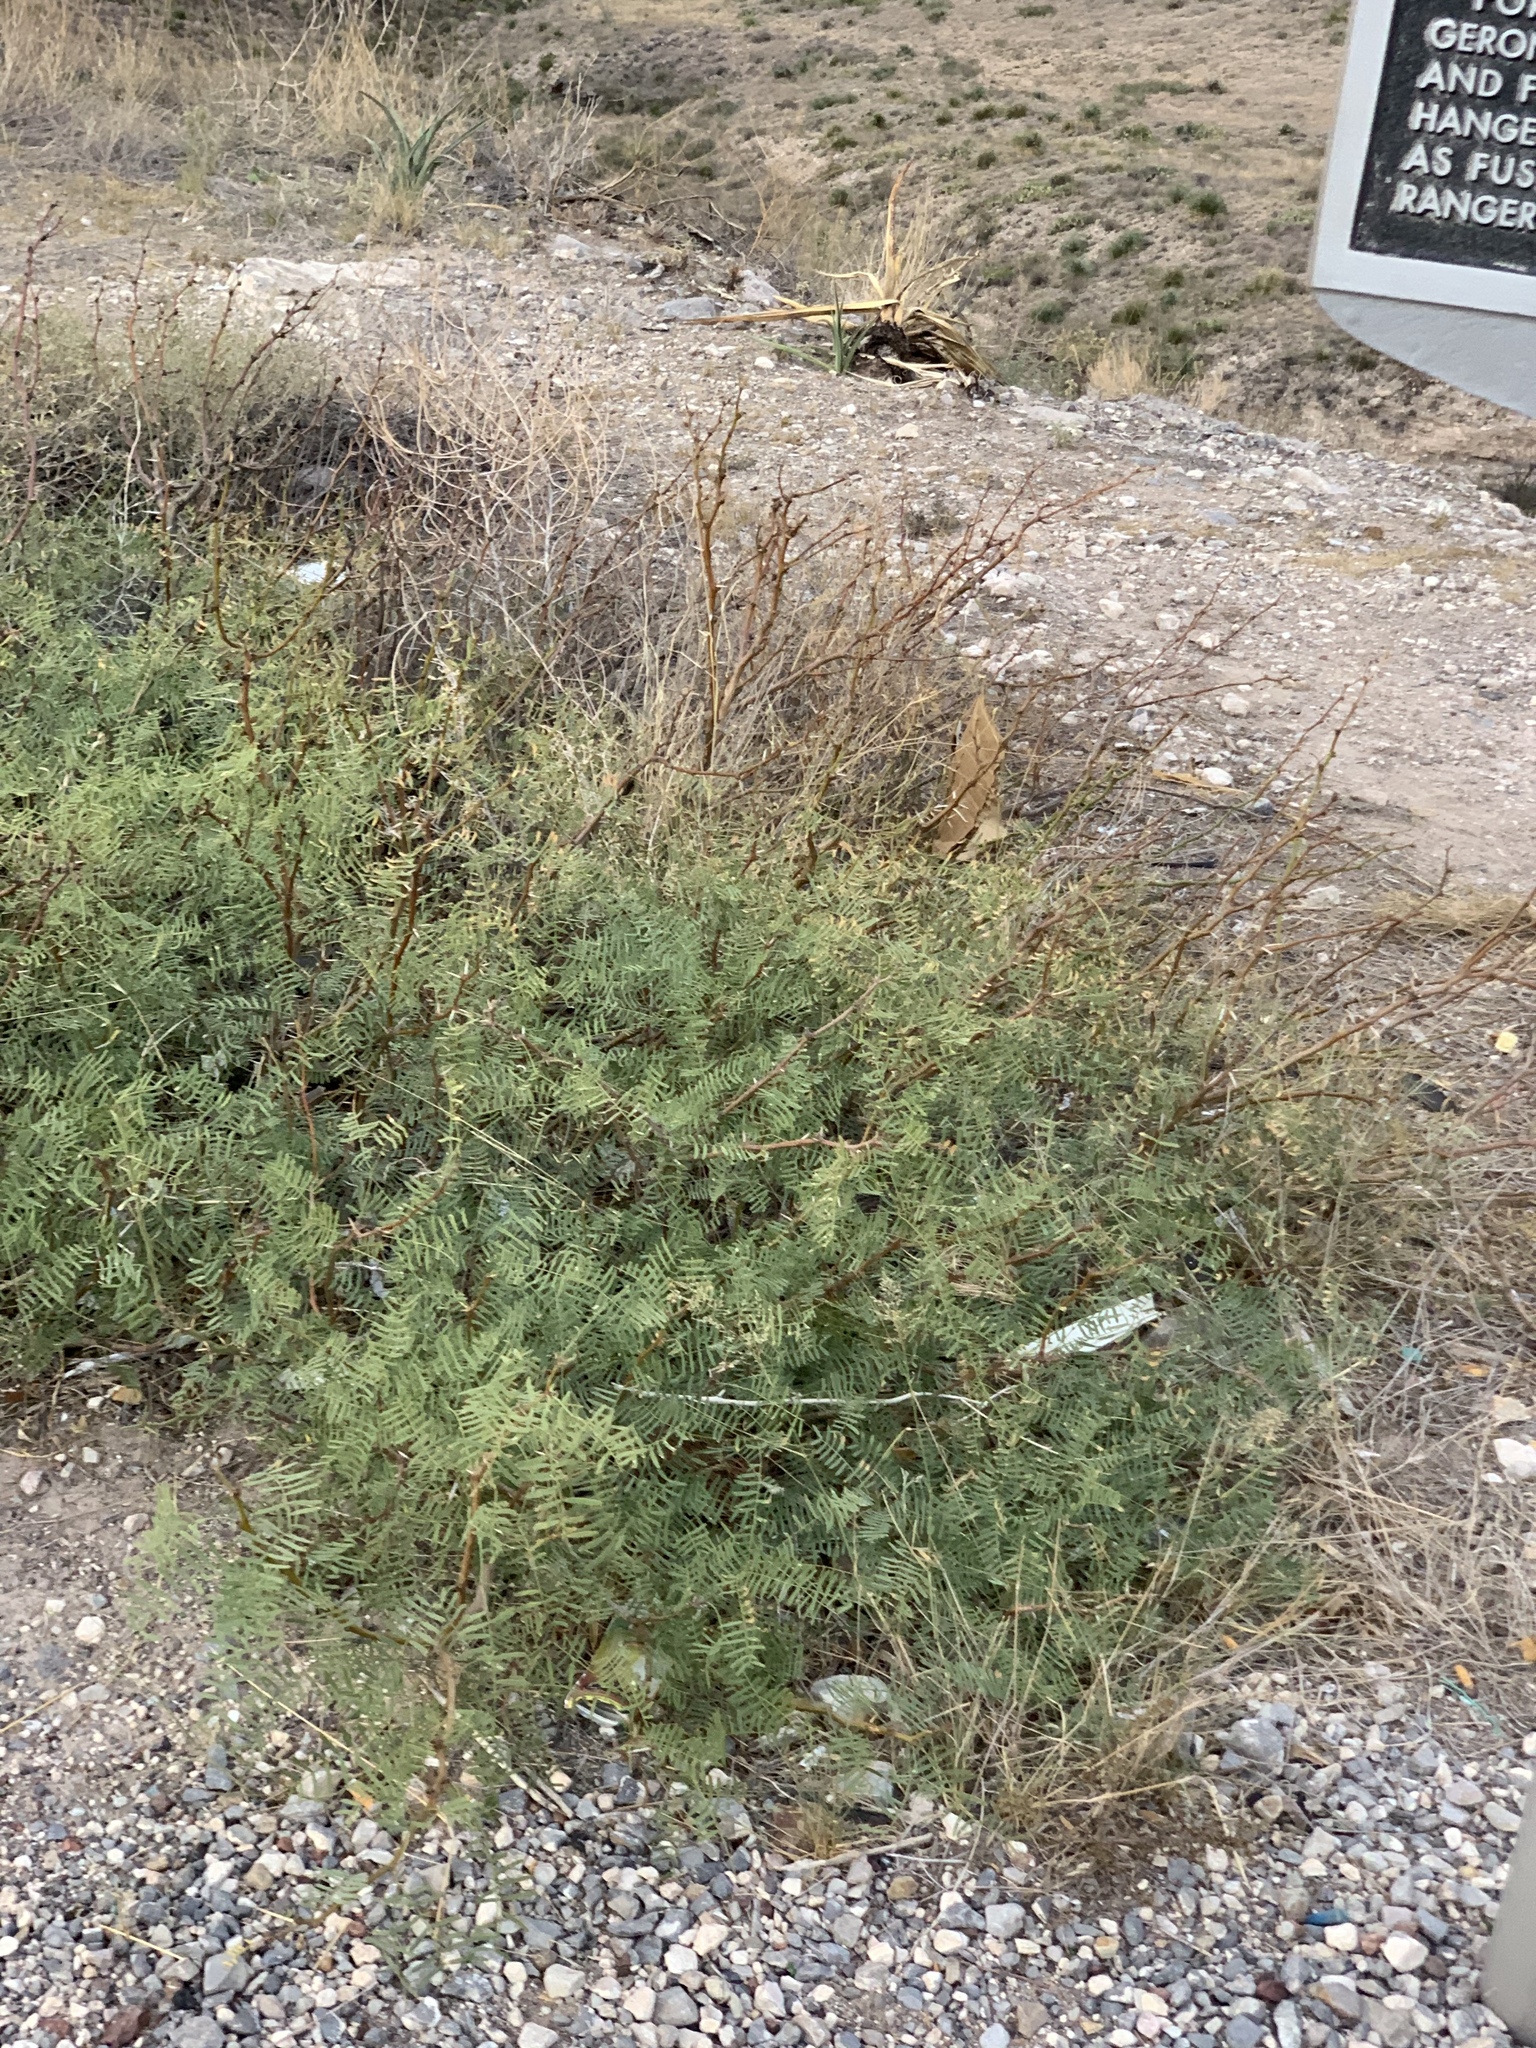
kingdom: Plantae
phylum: Tracheophyta
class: Magnoliopsida
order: Fabales
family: Fabaceae
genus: Prosopis
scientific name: Prosopis glandulosa
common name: Honey mesquite
